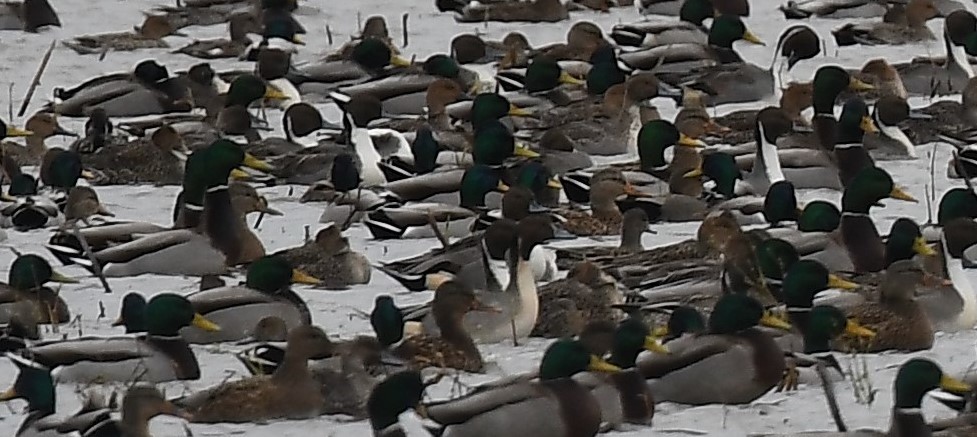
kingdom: Animalia
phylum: Chordata
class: Aves
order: Anseriformes
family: Anatidae
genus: Anas
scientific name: Anas acuta
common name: Northern pintail
